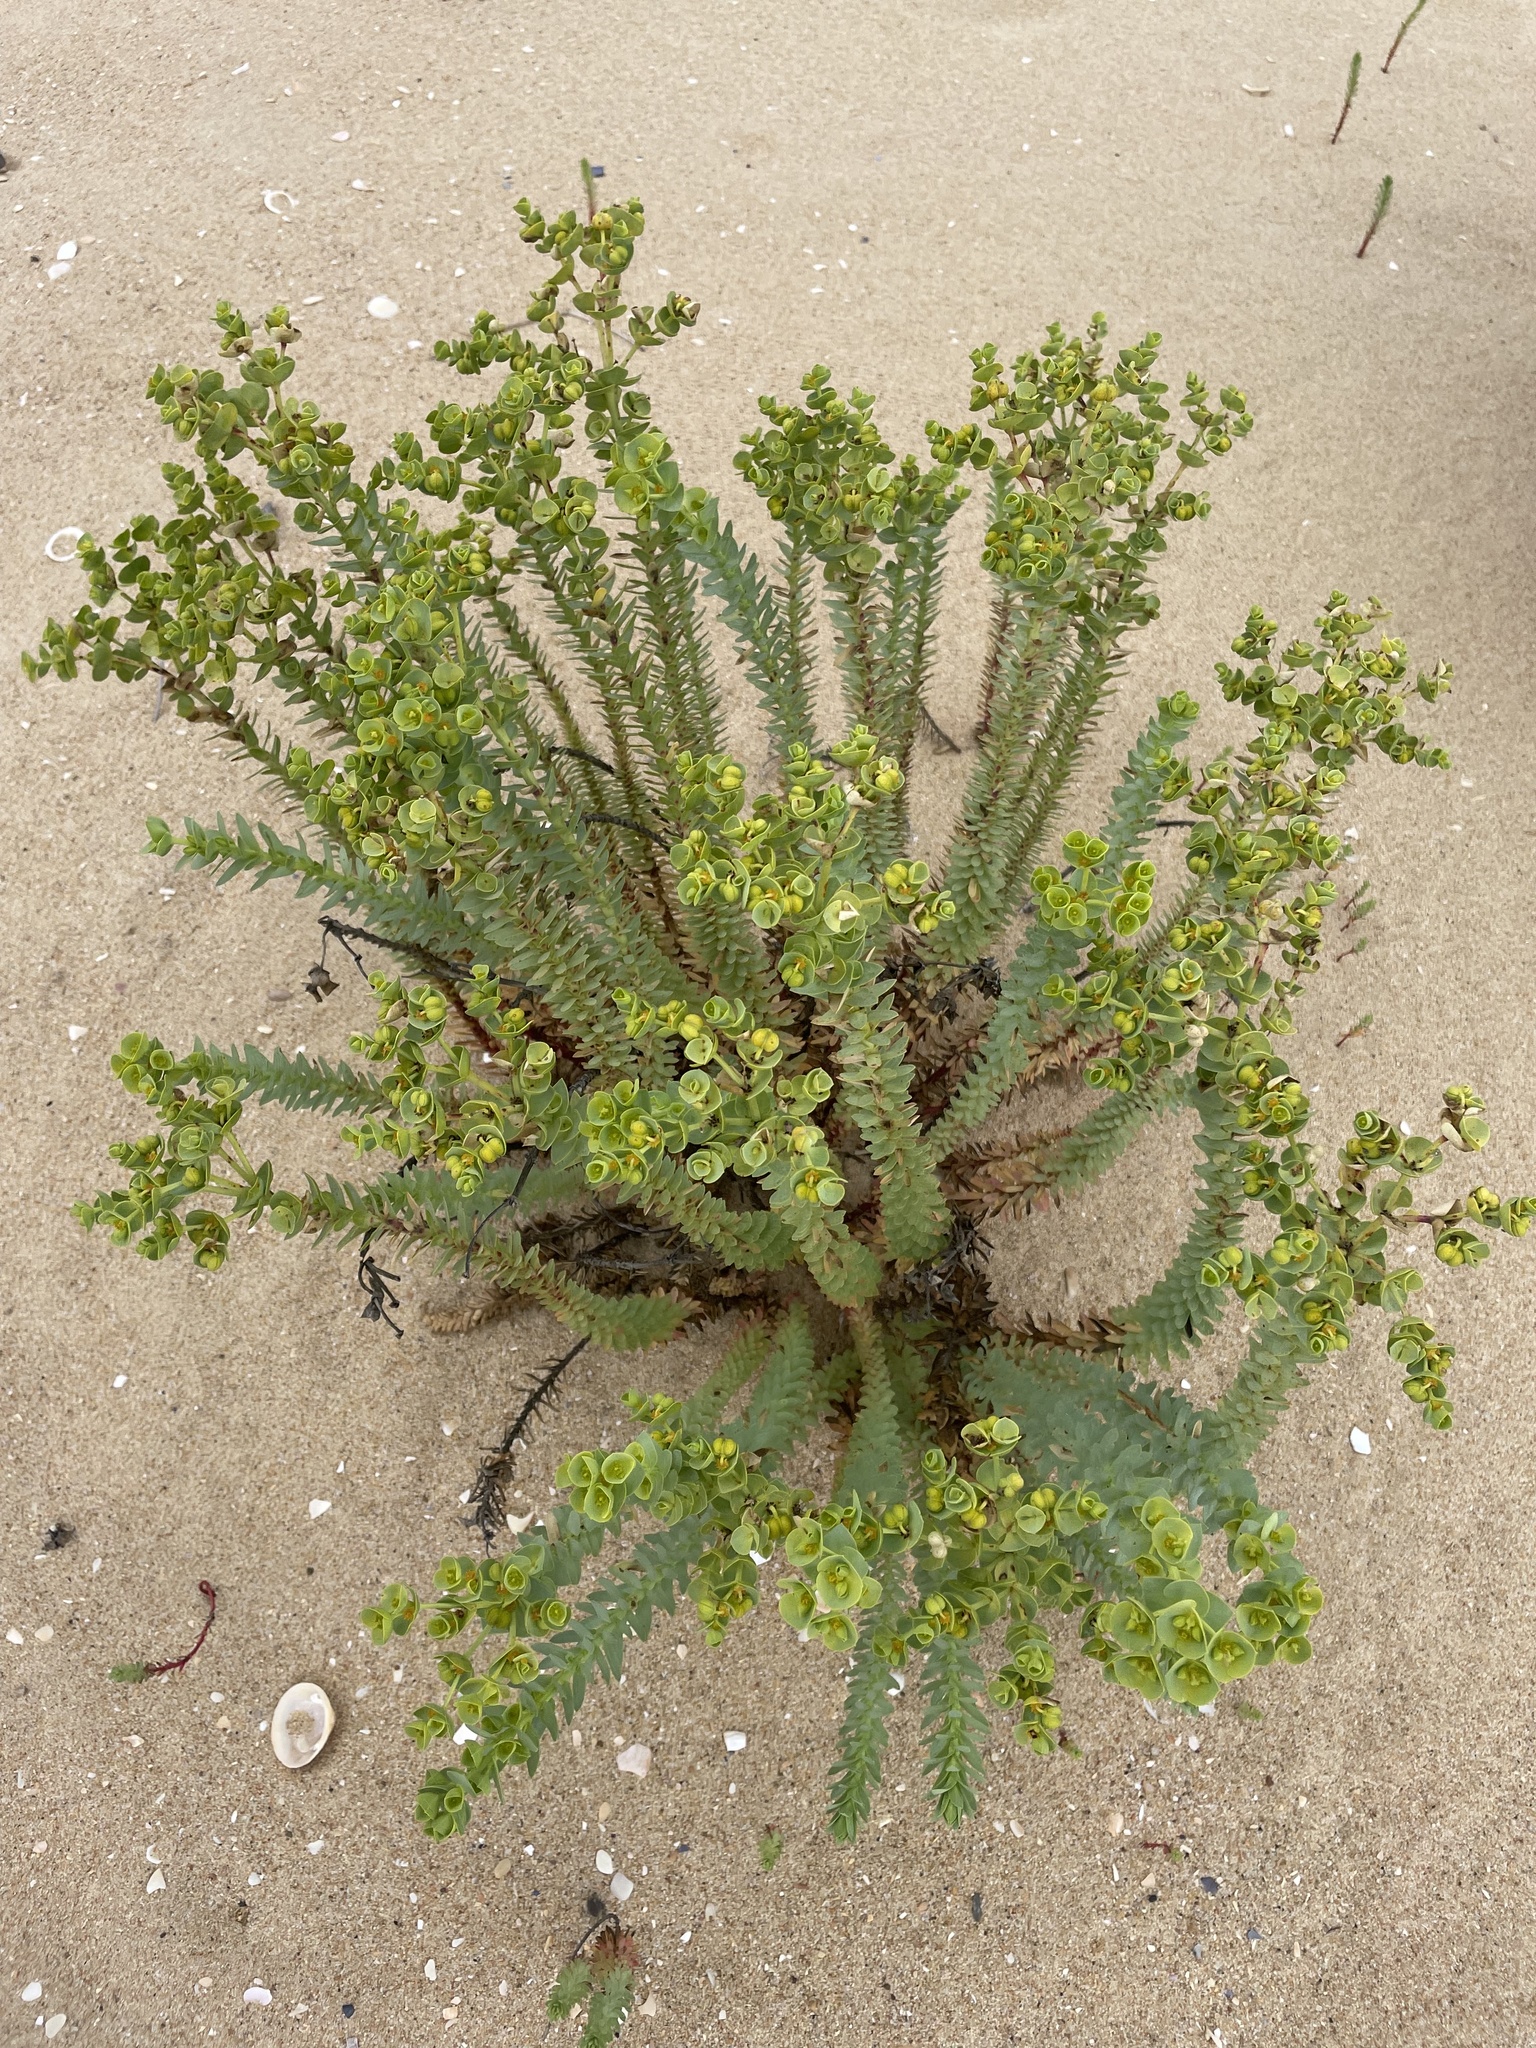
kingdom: Plantae
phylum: Tracheophyta
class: Magnoliopsida
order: Malpighiales
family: Euphorbiaceae
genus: Euphorbia
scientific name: Euphorbia paralias
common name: Sea spurge
